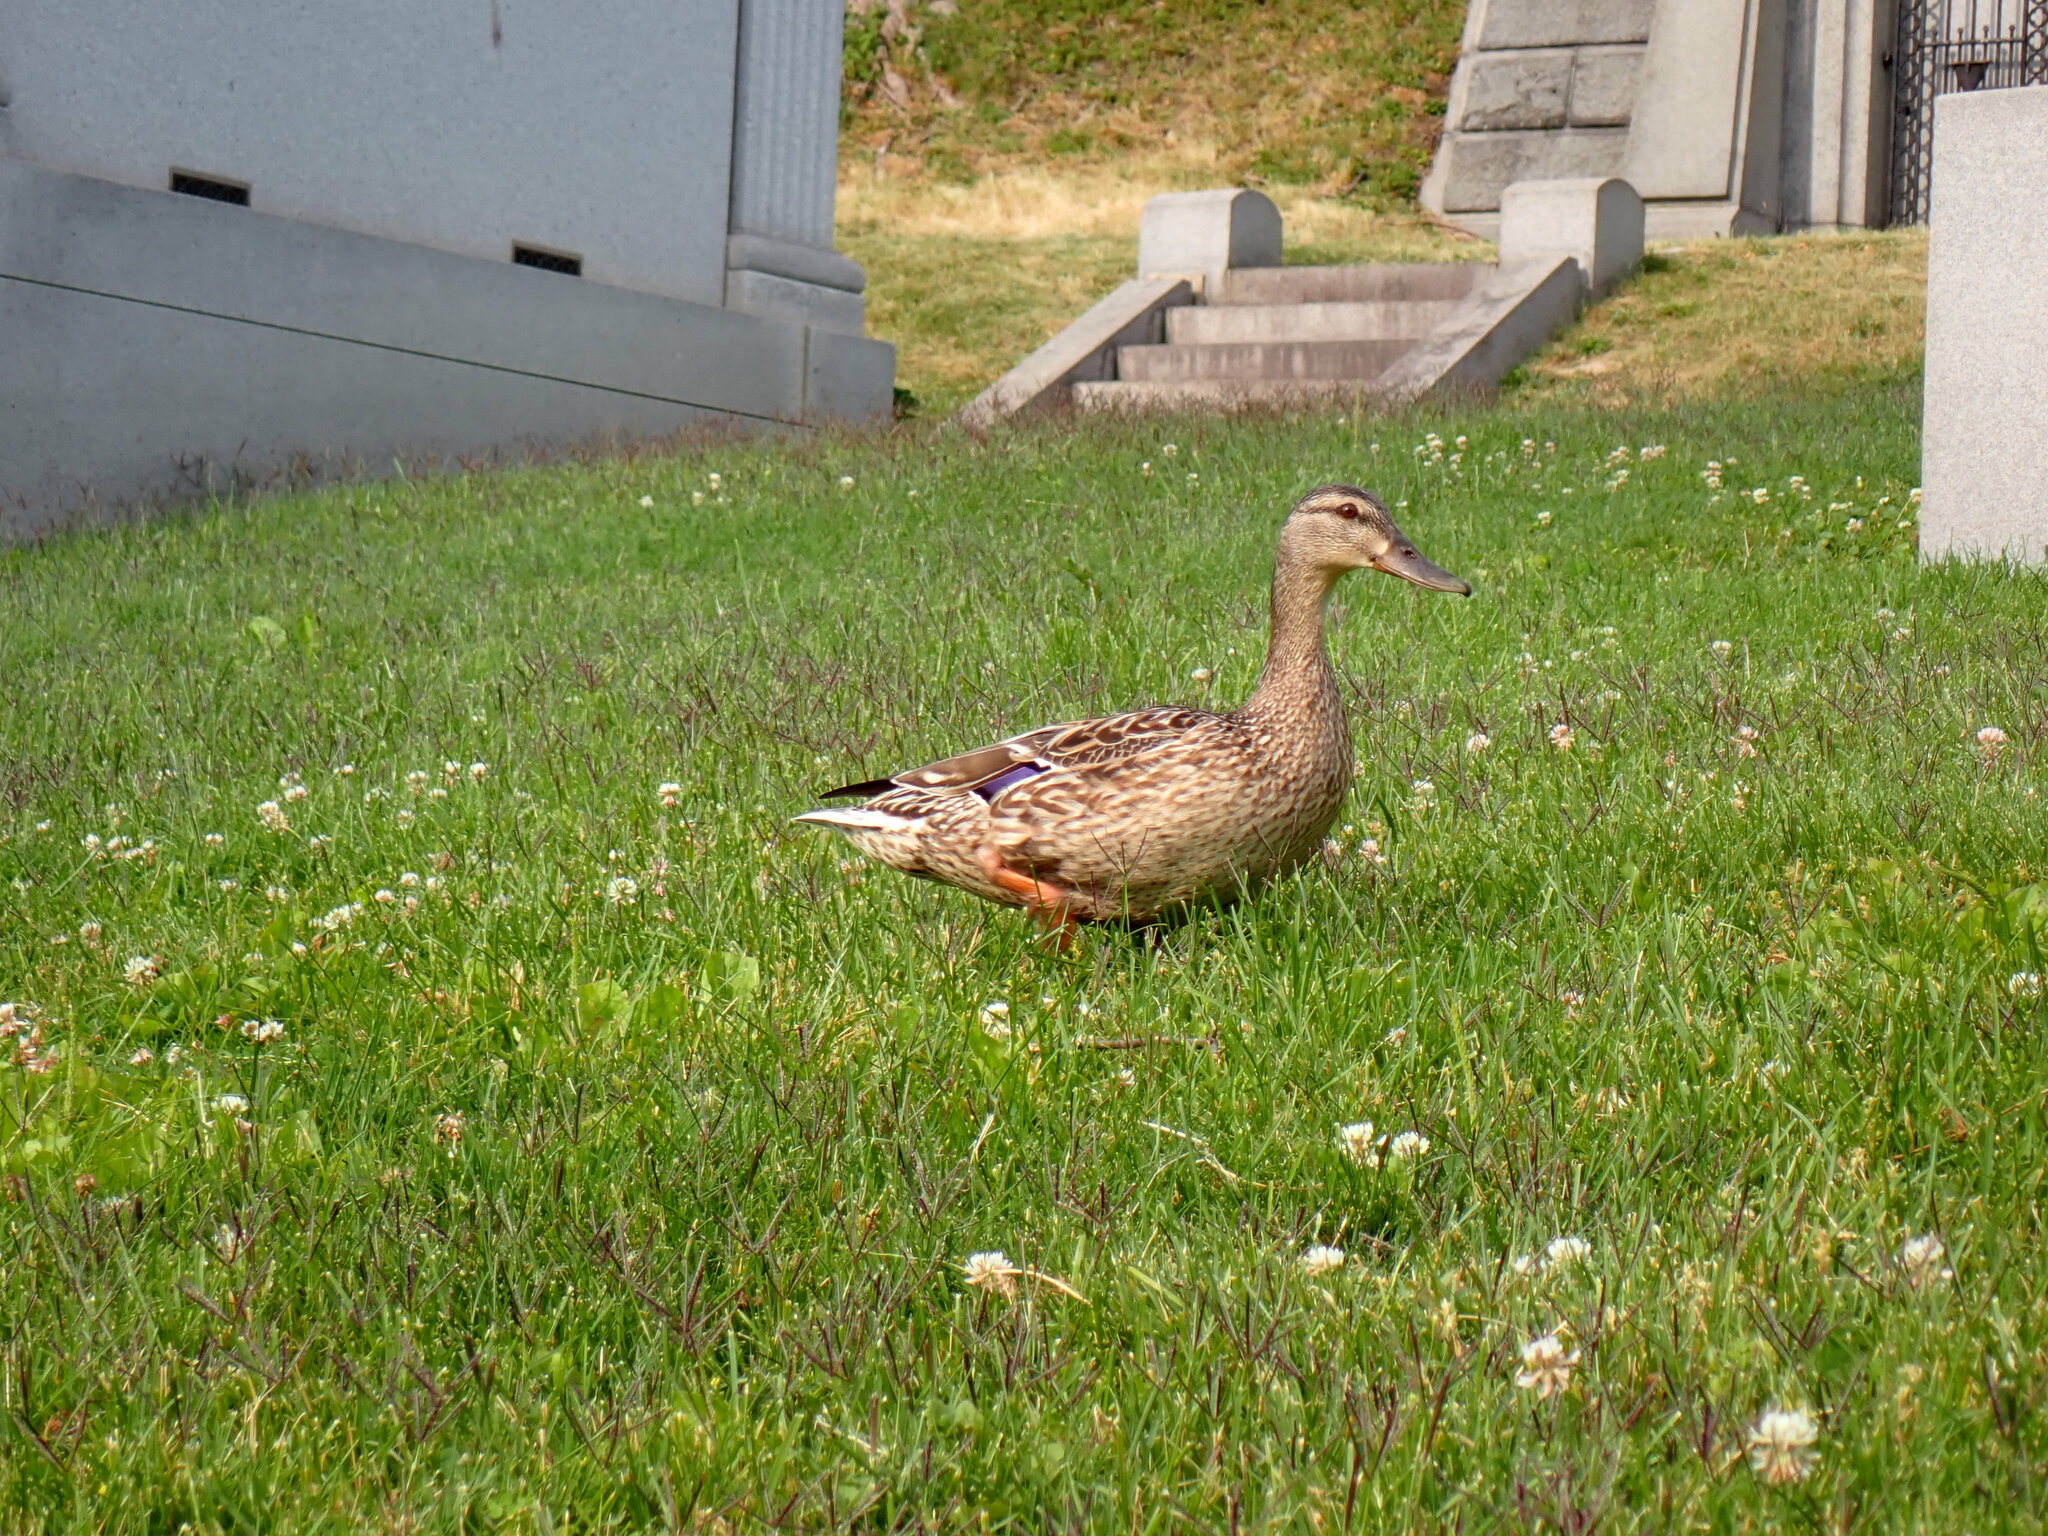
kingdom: Animalia
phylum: Chordata
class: Aves
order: Anseriformes
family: Anatidae
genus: Anas
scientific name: Anas platyrhynchos
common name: Mallard
